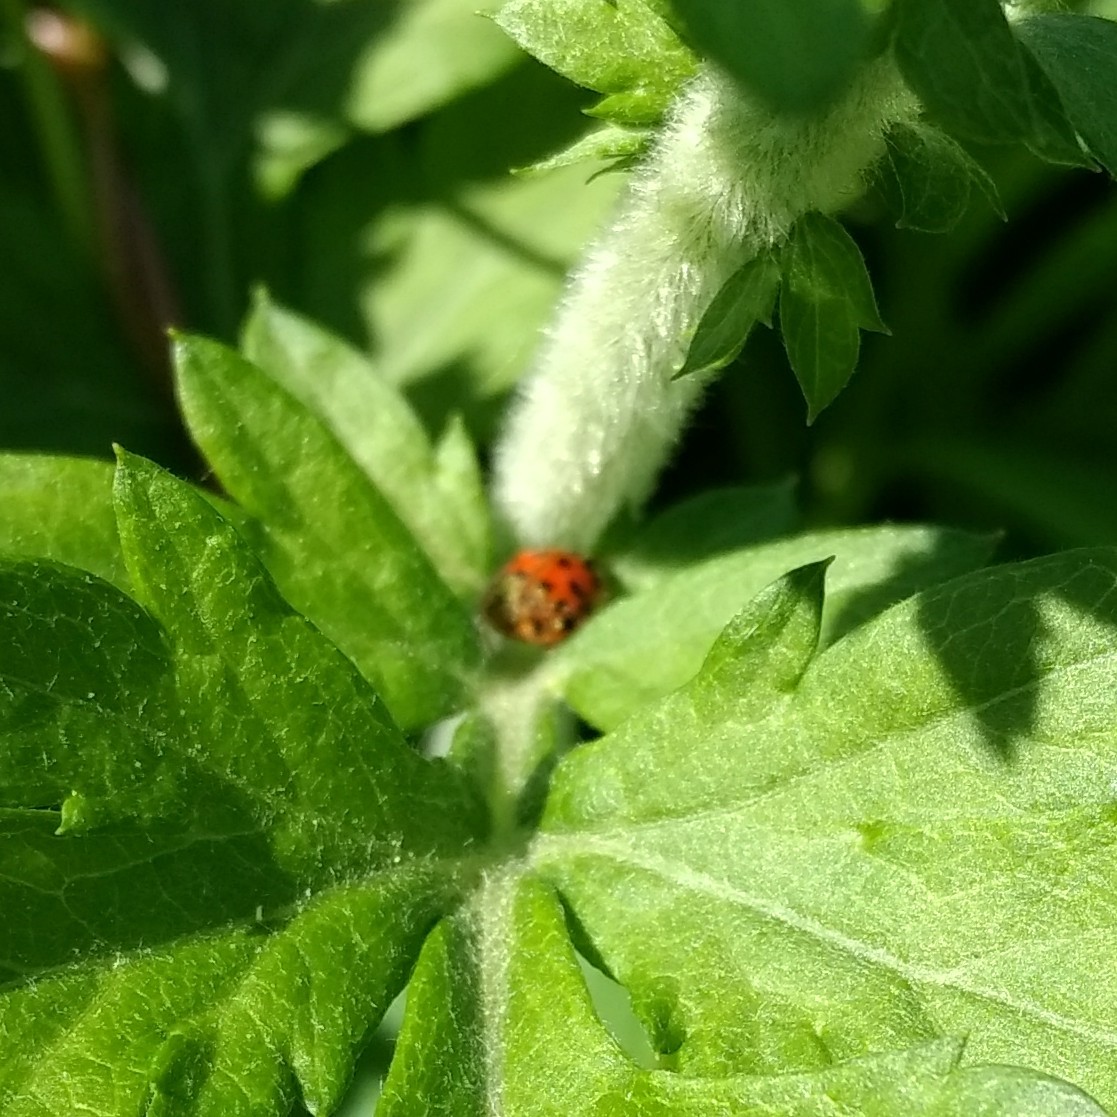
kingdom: Fungi
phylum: Ascomycota
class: Laboulbeniomycetes
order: Laboulbeniales
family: Laboulbeniaceae
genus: Hesperomyces
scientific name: Hesperomyces harmoniae
